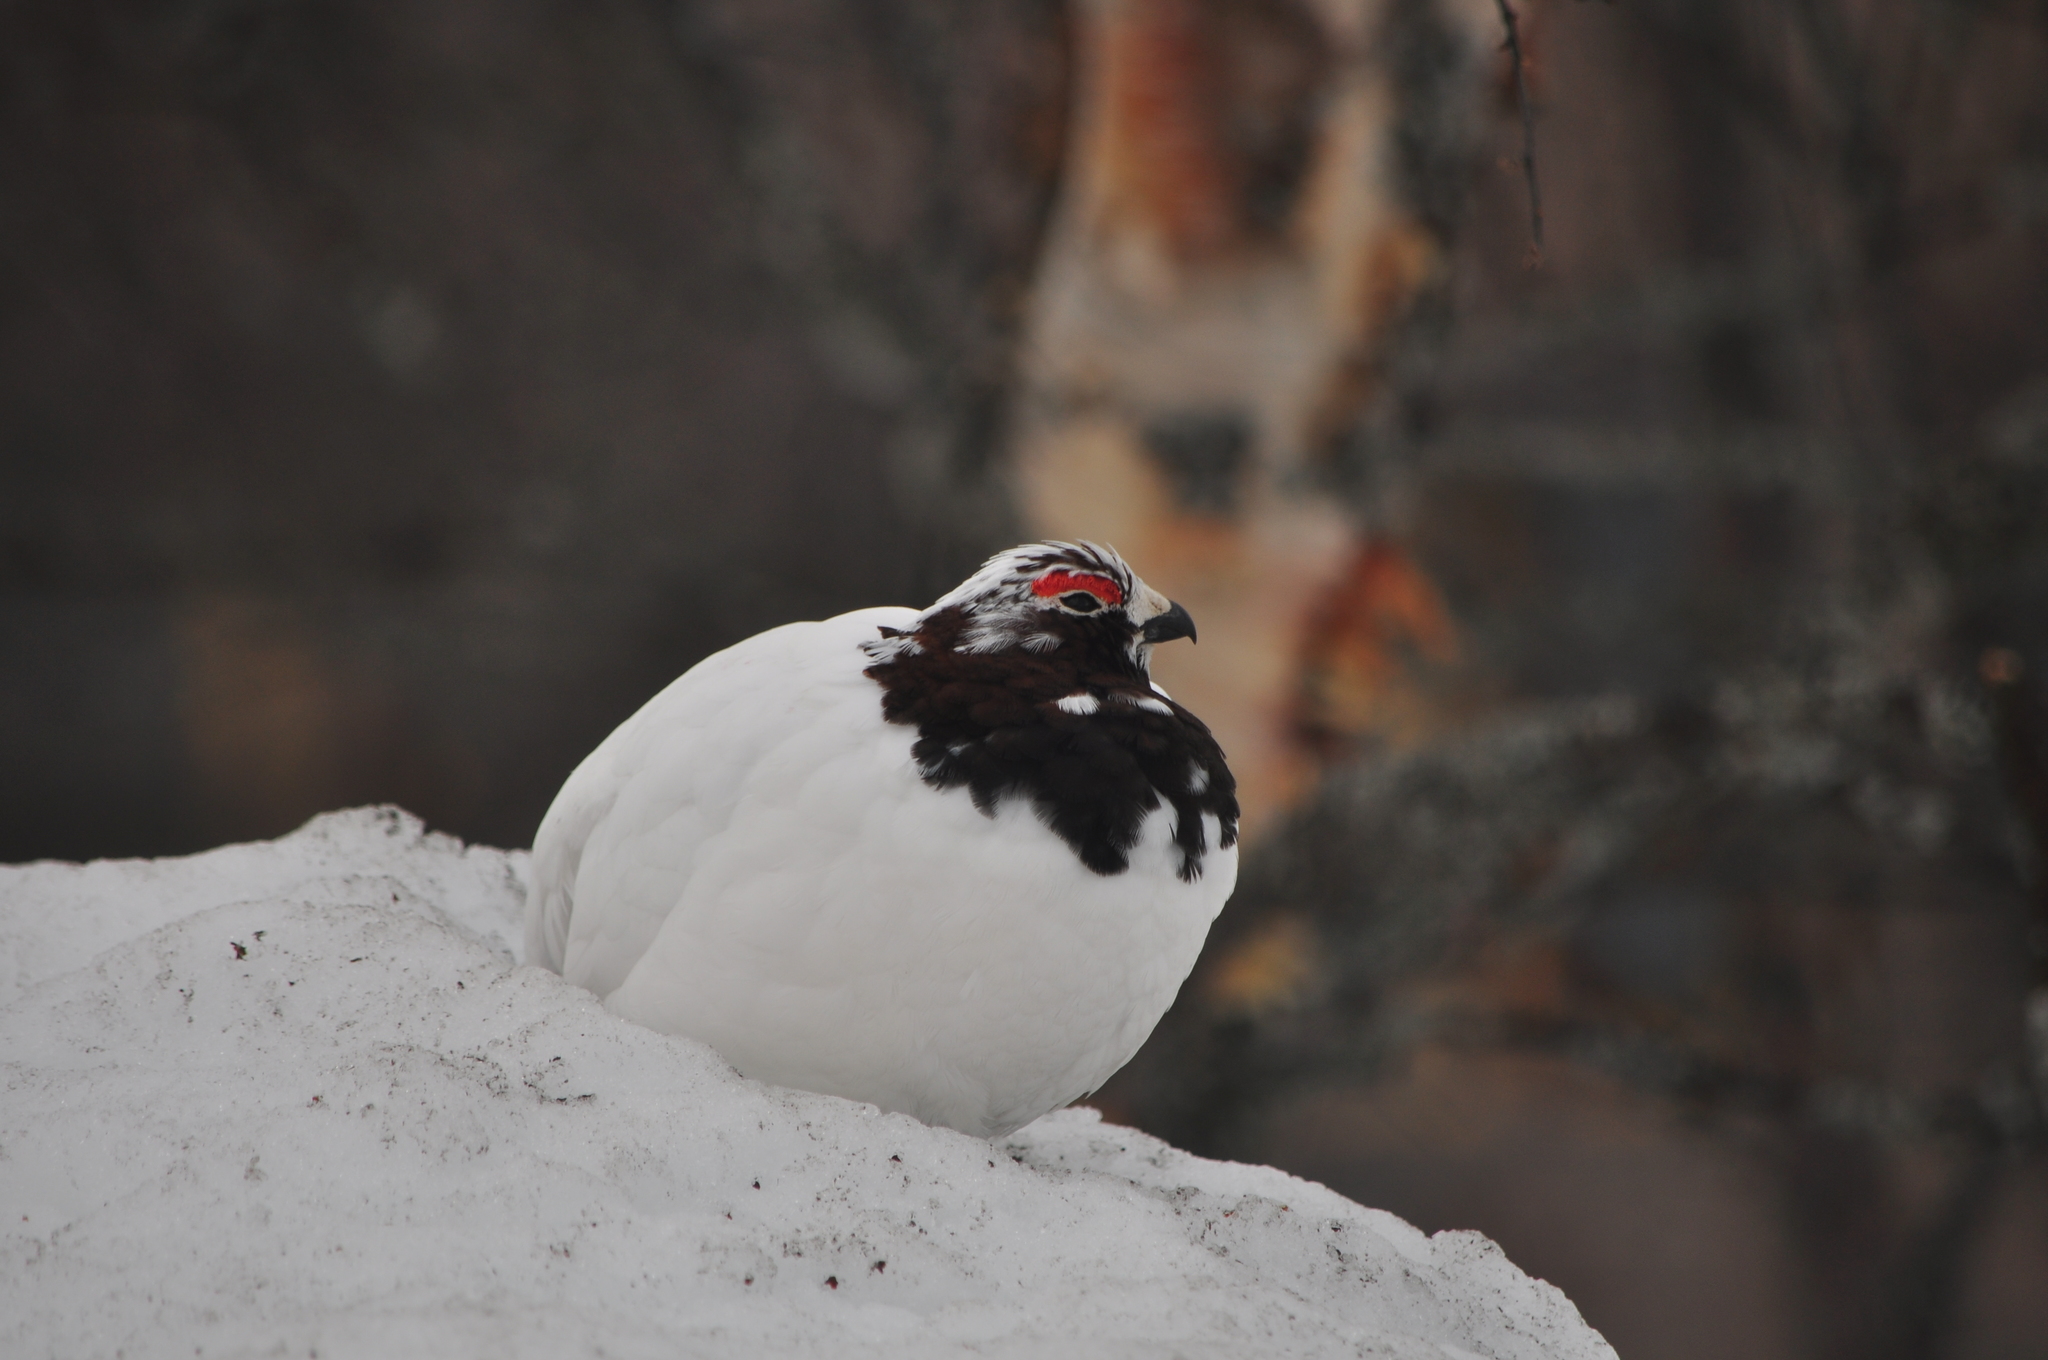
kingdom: Animalia
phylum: Chordata
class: Aves
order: Galliformes
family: Phasianidae
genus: Lagopus
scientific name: Lagopus lagopus
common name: Willow ptarmigan
